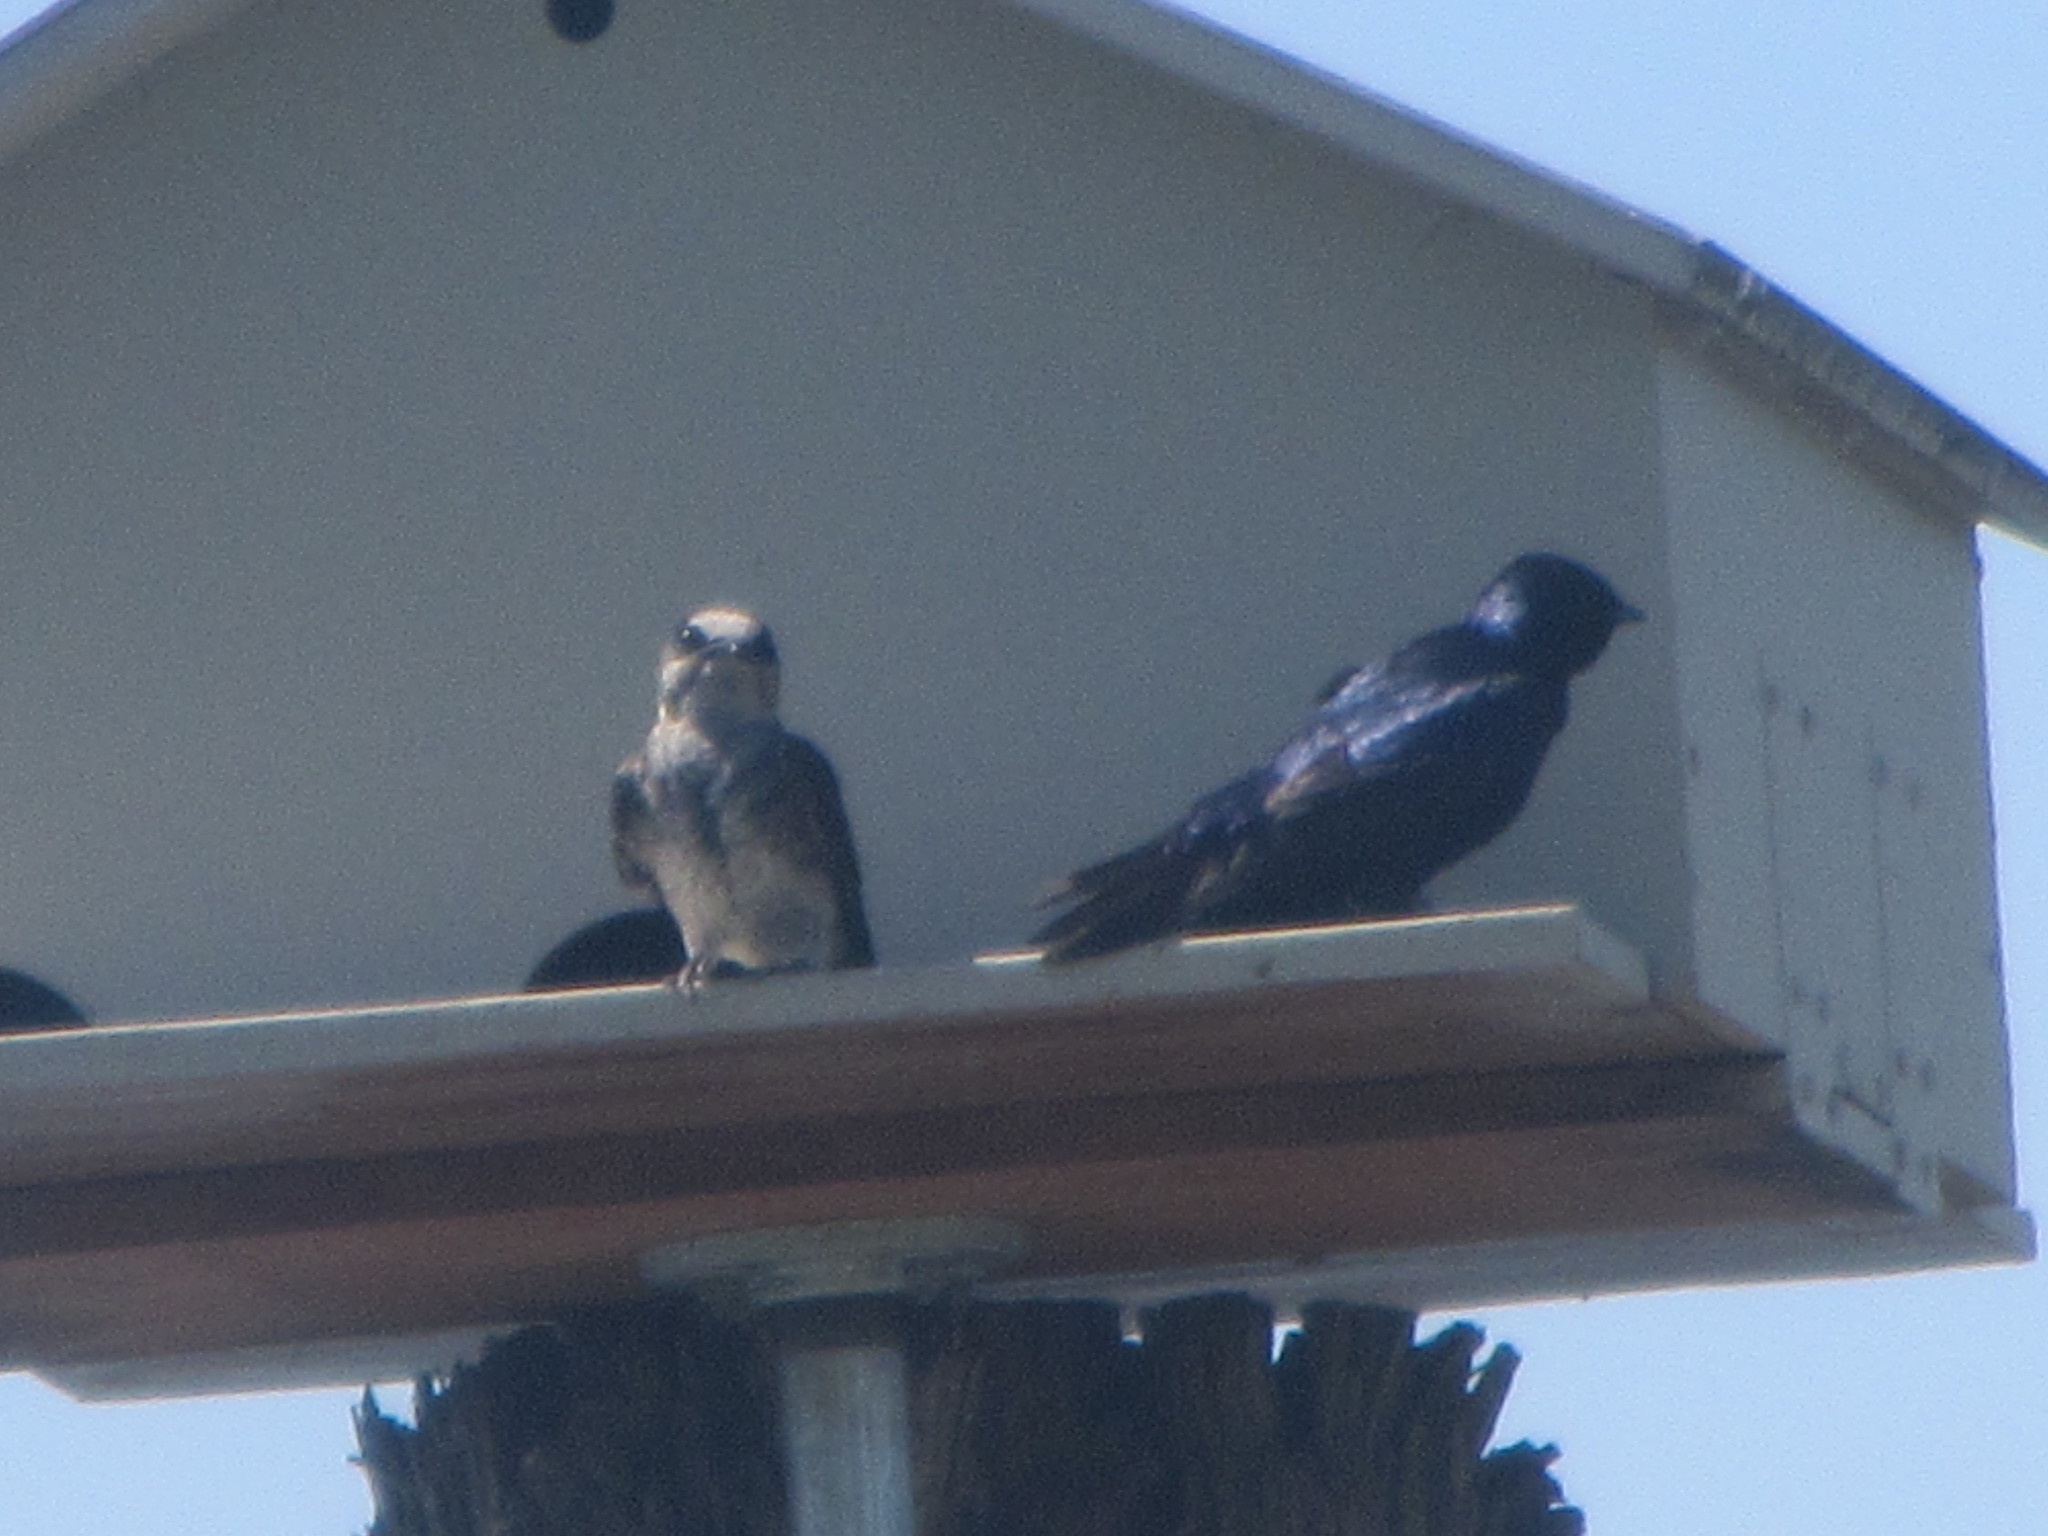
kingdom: Animalia
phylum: Chordata
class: Aves
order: Passeriformes
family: Hirundinidae
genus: Progne
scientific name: Progne subis
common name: Purple martin
